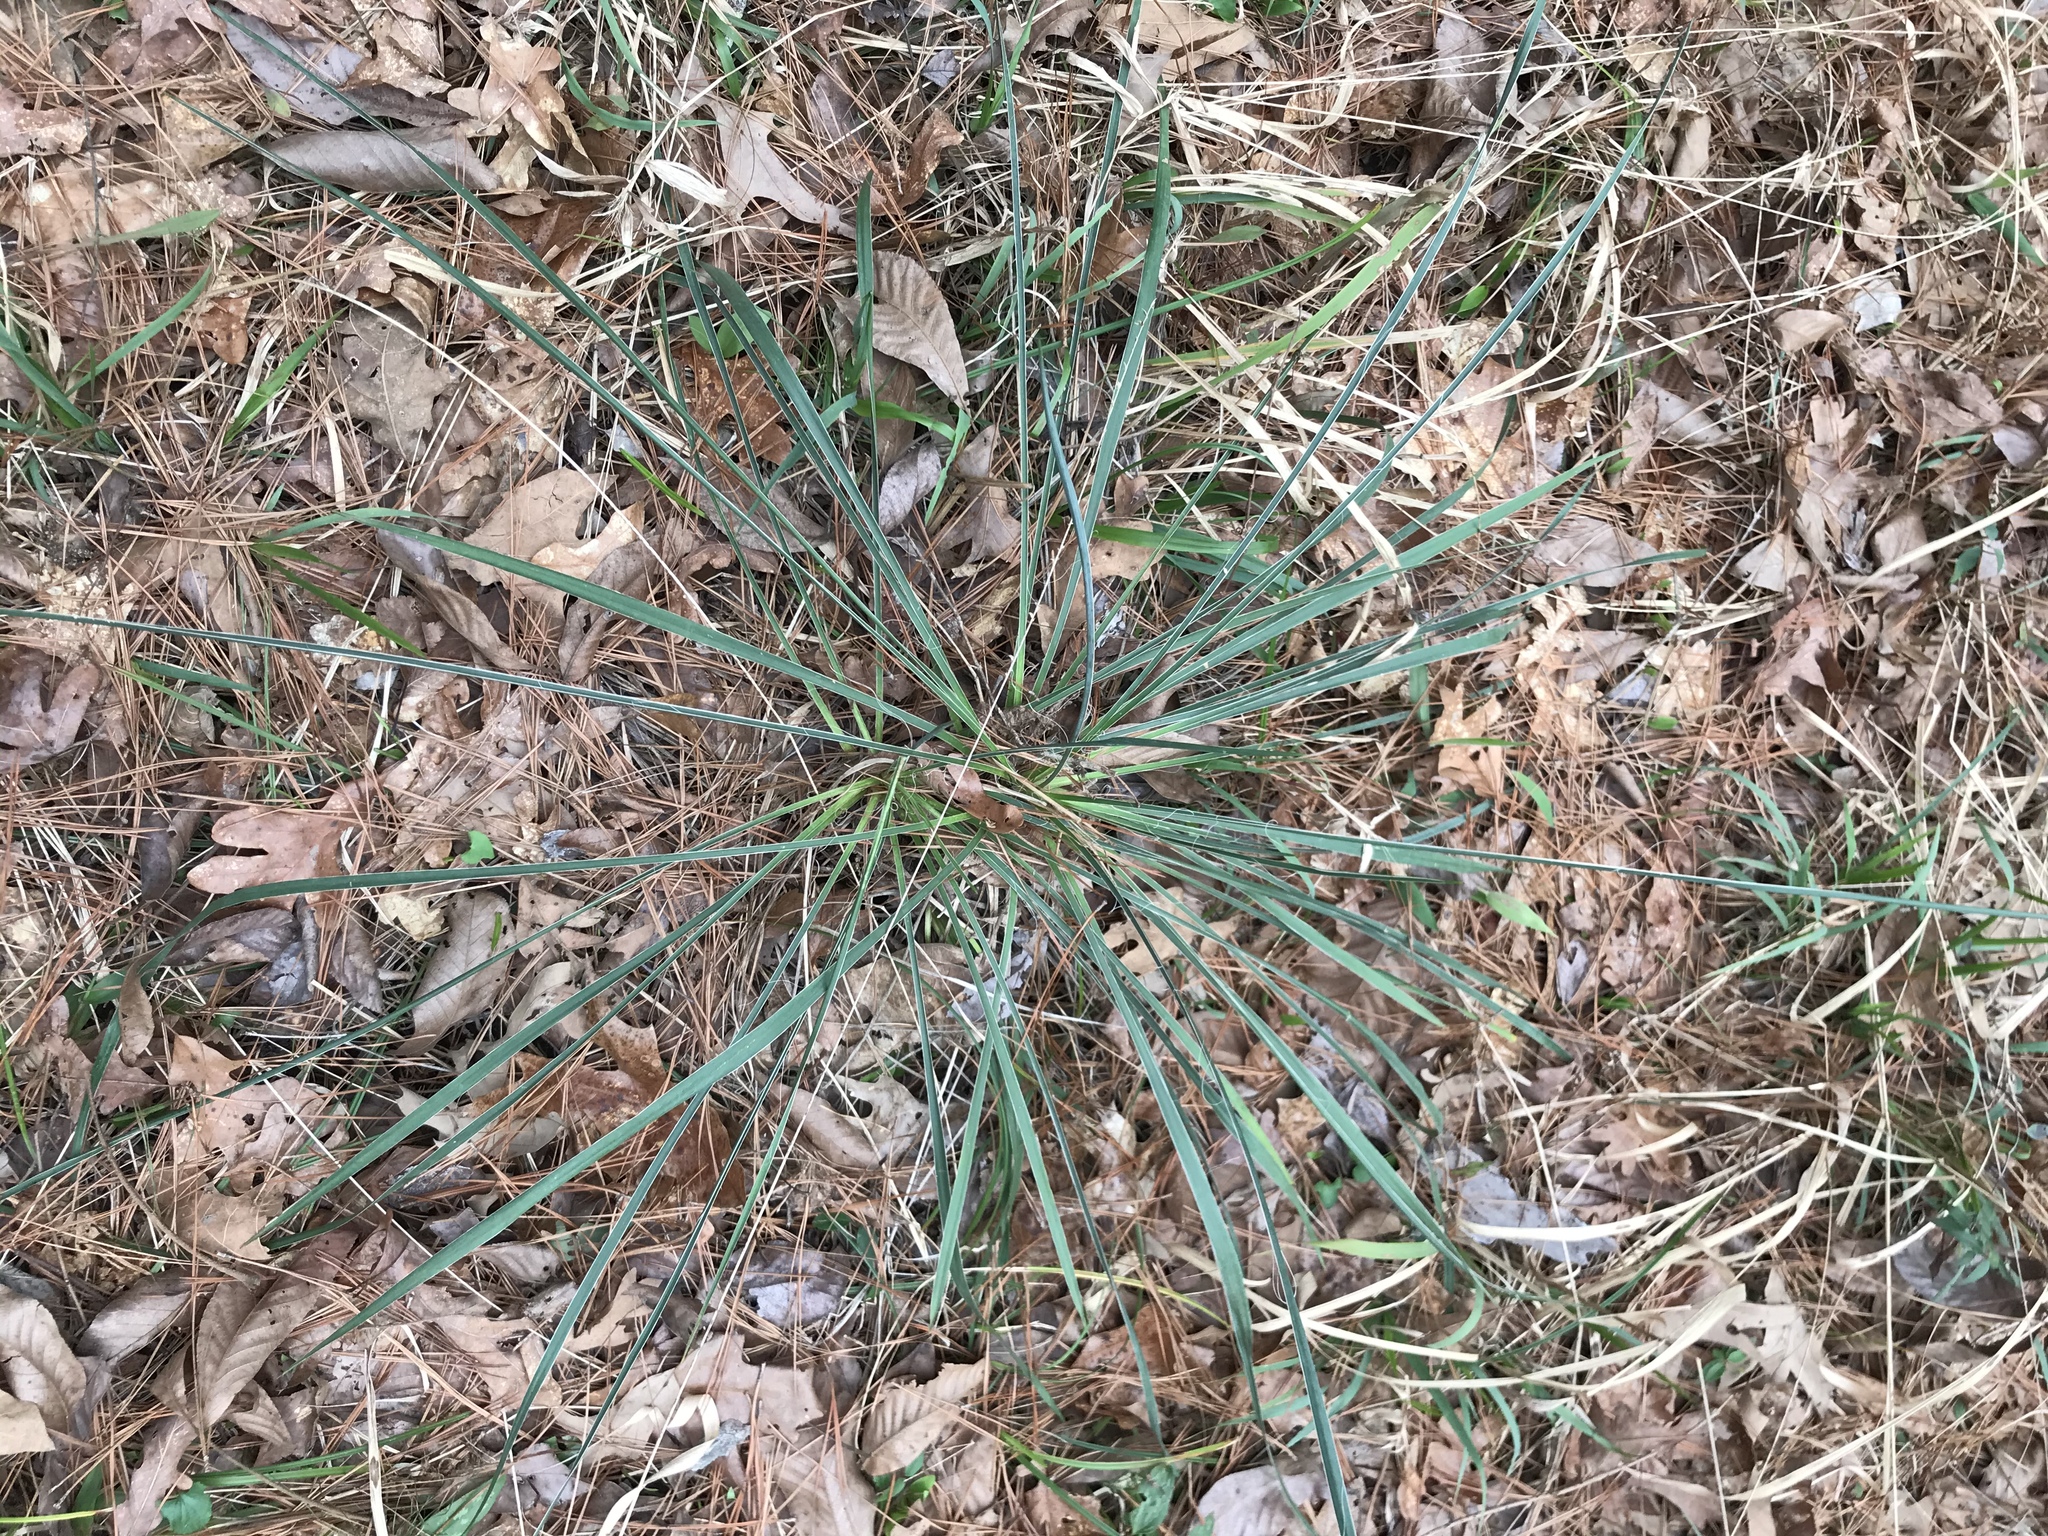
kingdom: Plantae
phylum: Tracheophyta
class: Liliopsida
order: Asparagales
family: Asparagaceae
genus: Yucca
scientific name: Yucca flaccida
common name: Adam's-needle
